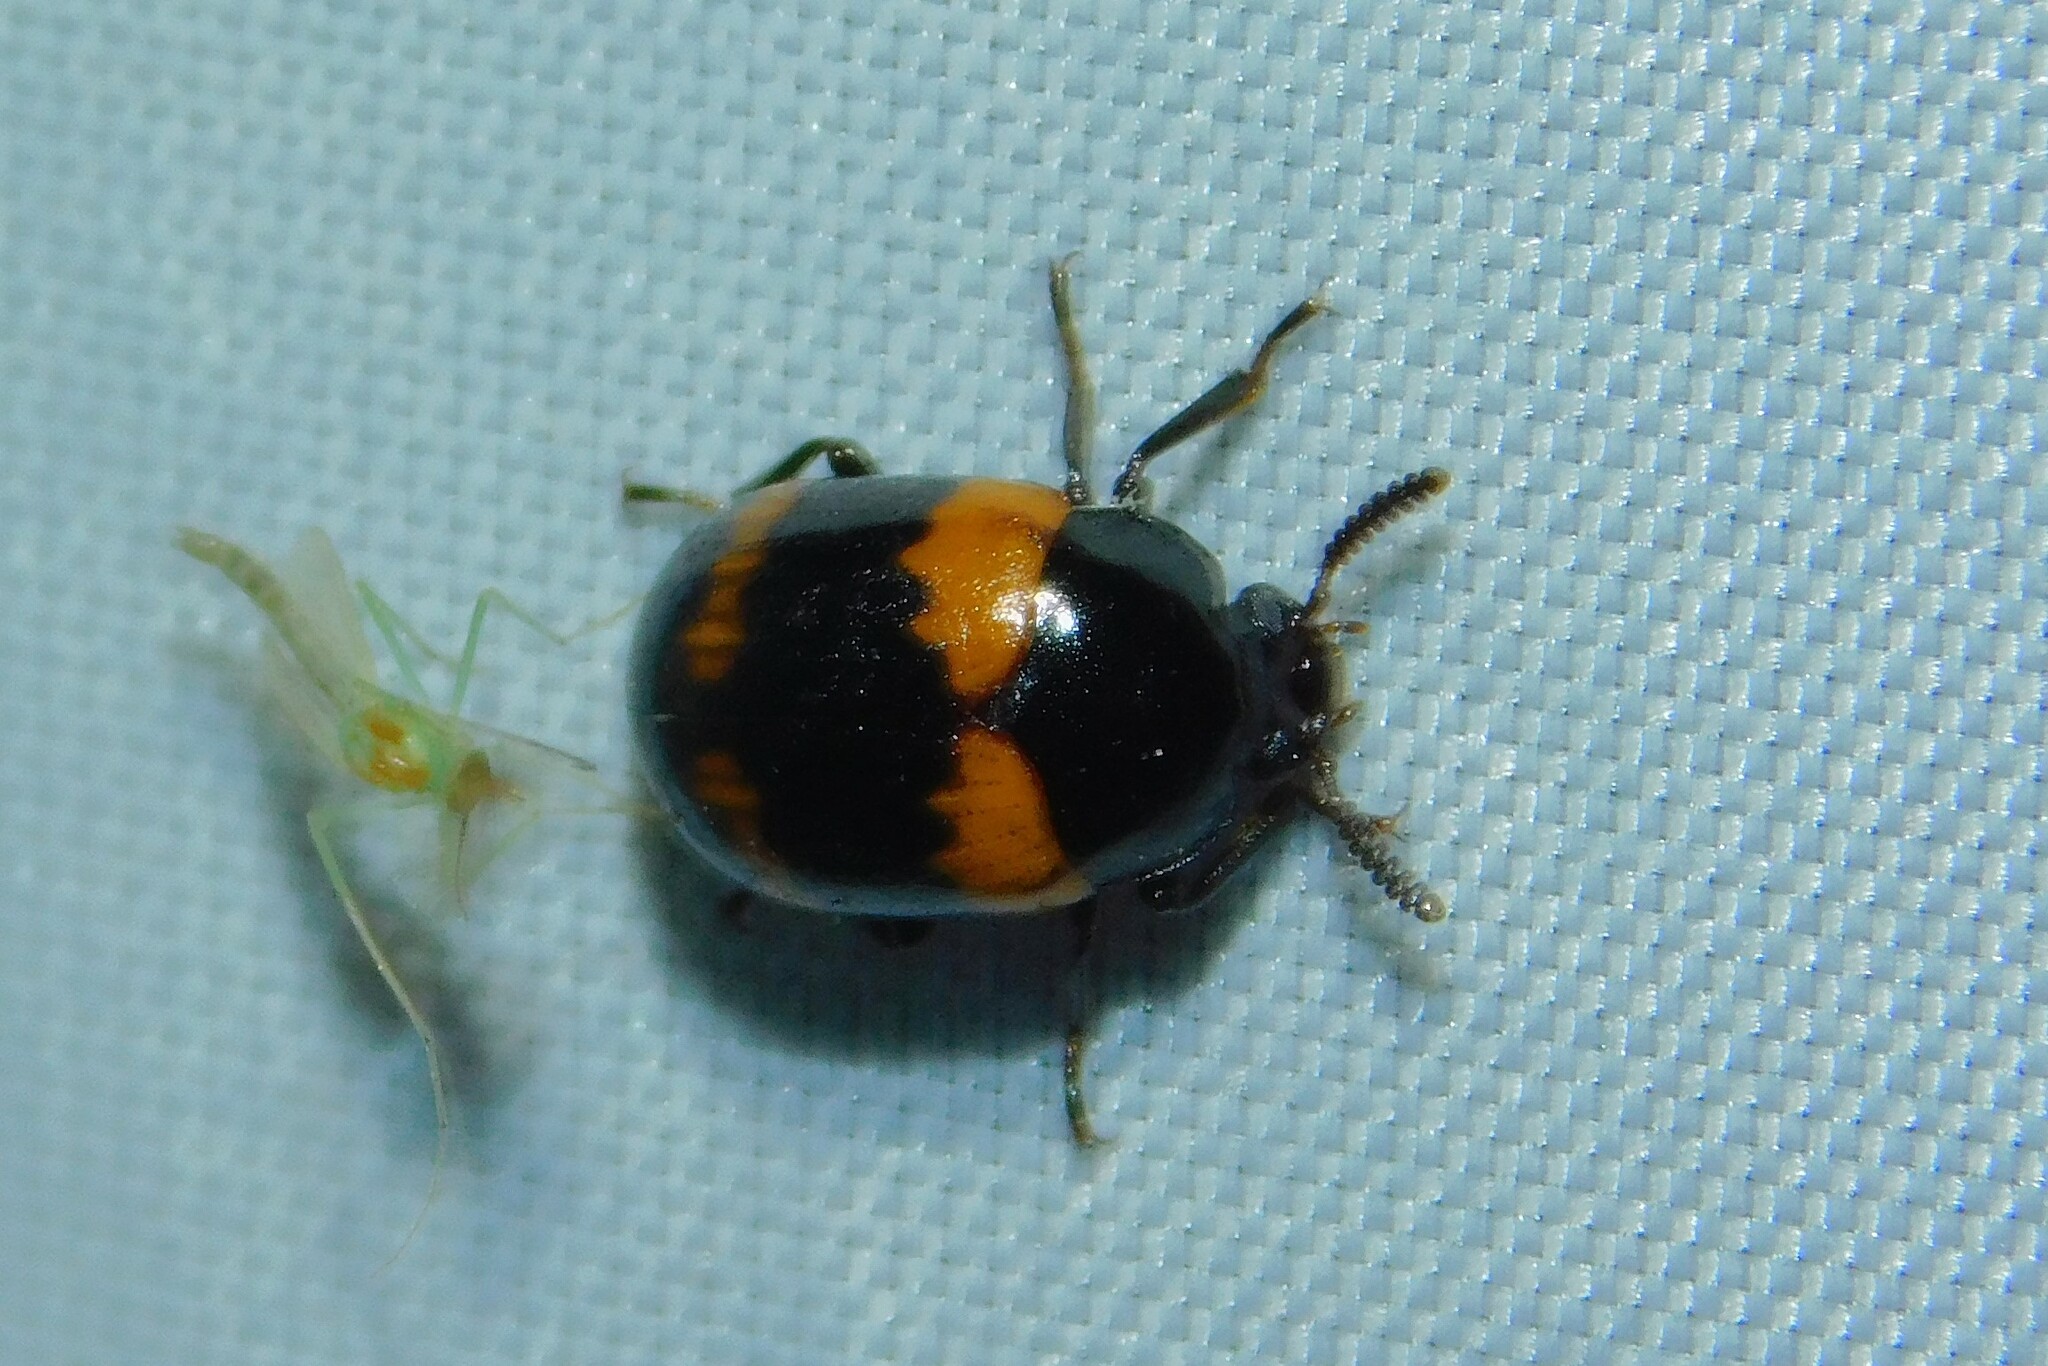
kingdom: Animalia
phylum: Arthropoda
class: Insecta
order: Coleoptera
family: Tenebrionidae
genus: Diaperis
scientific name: Diaperis boleti
